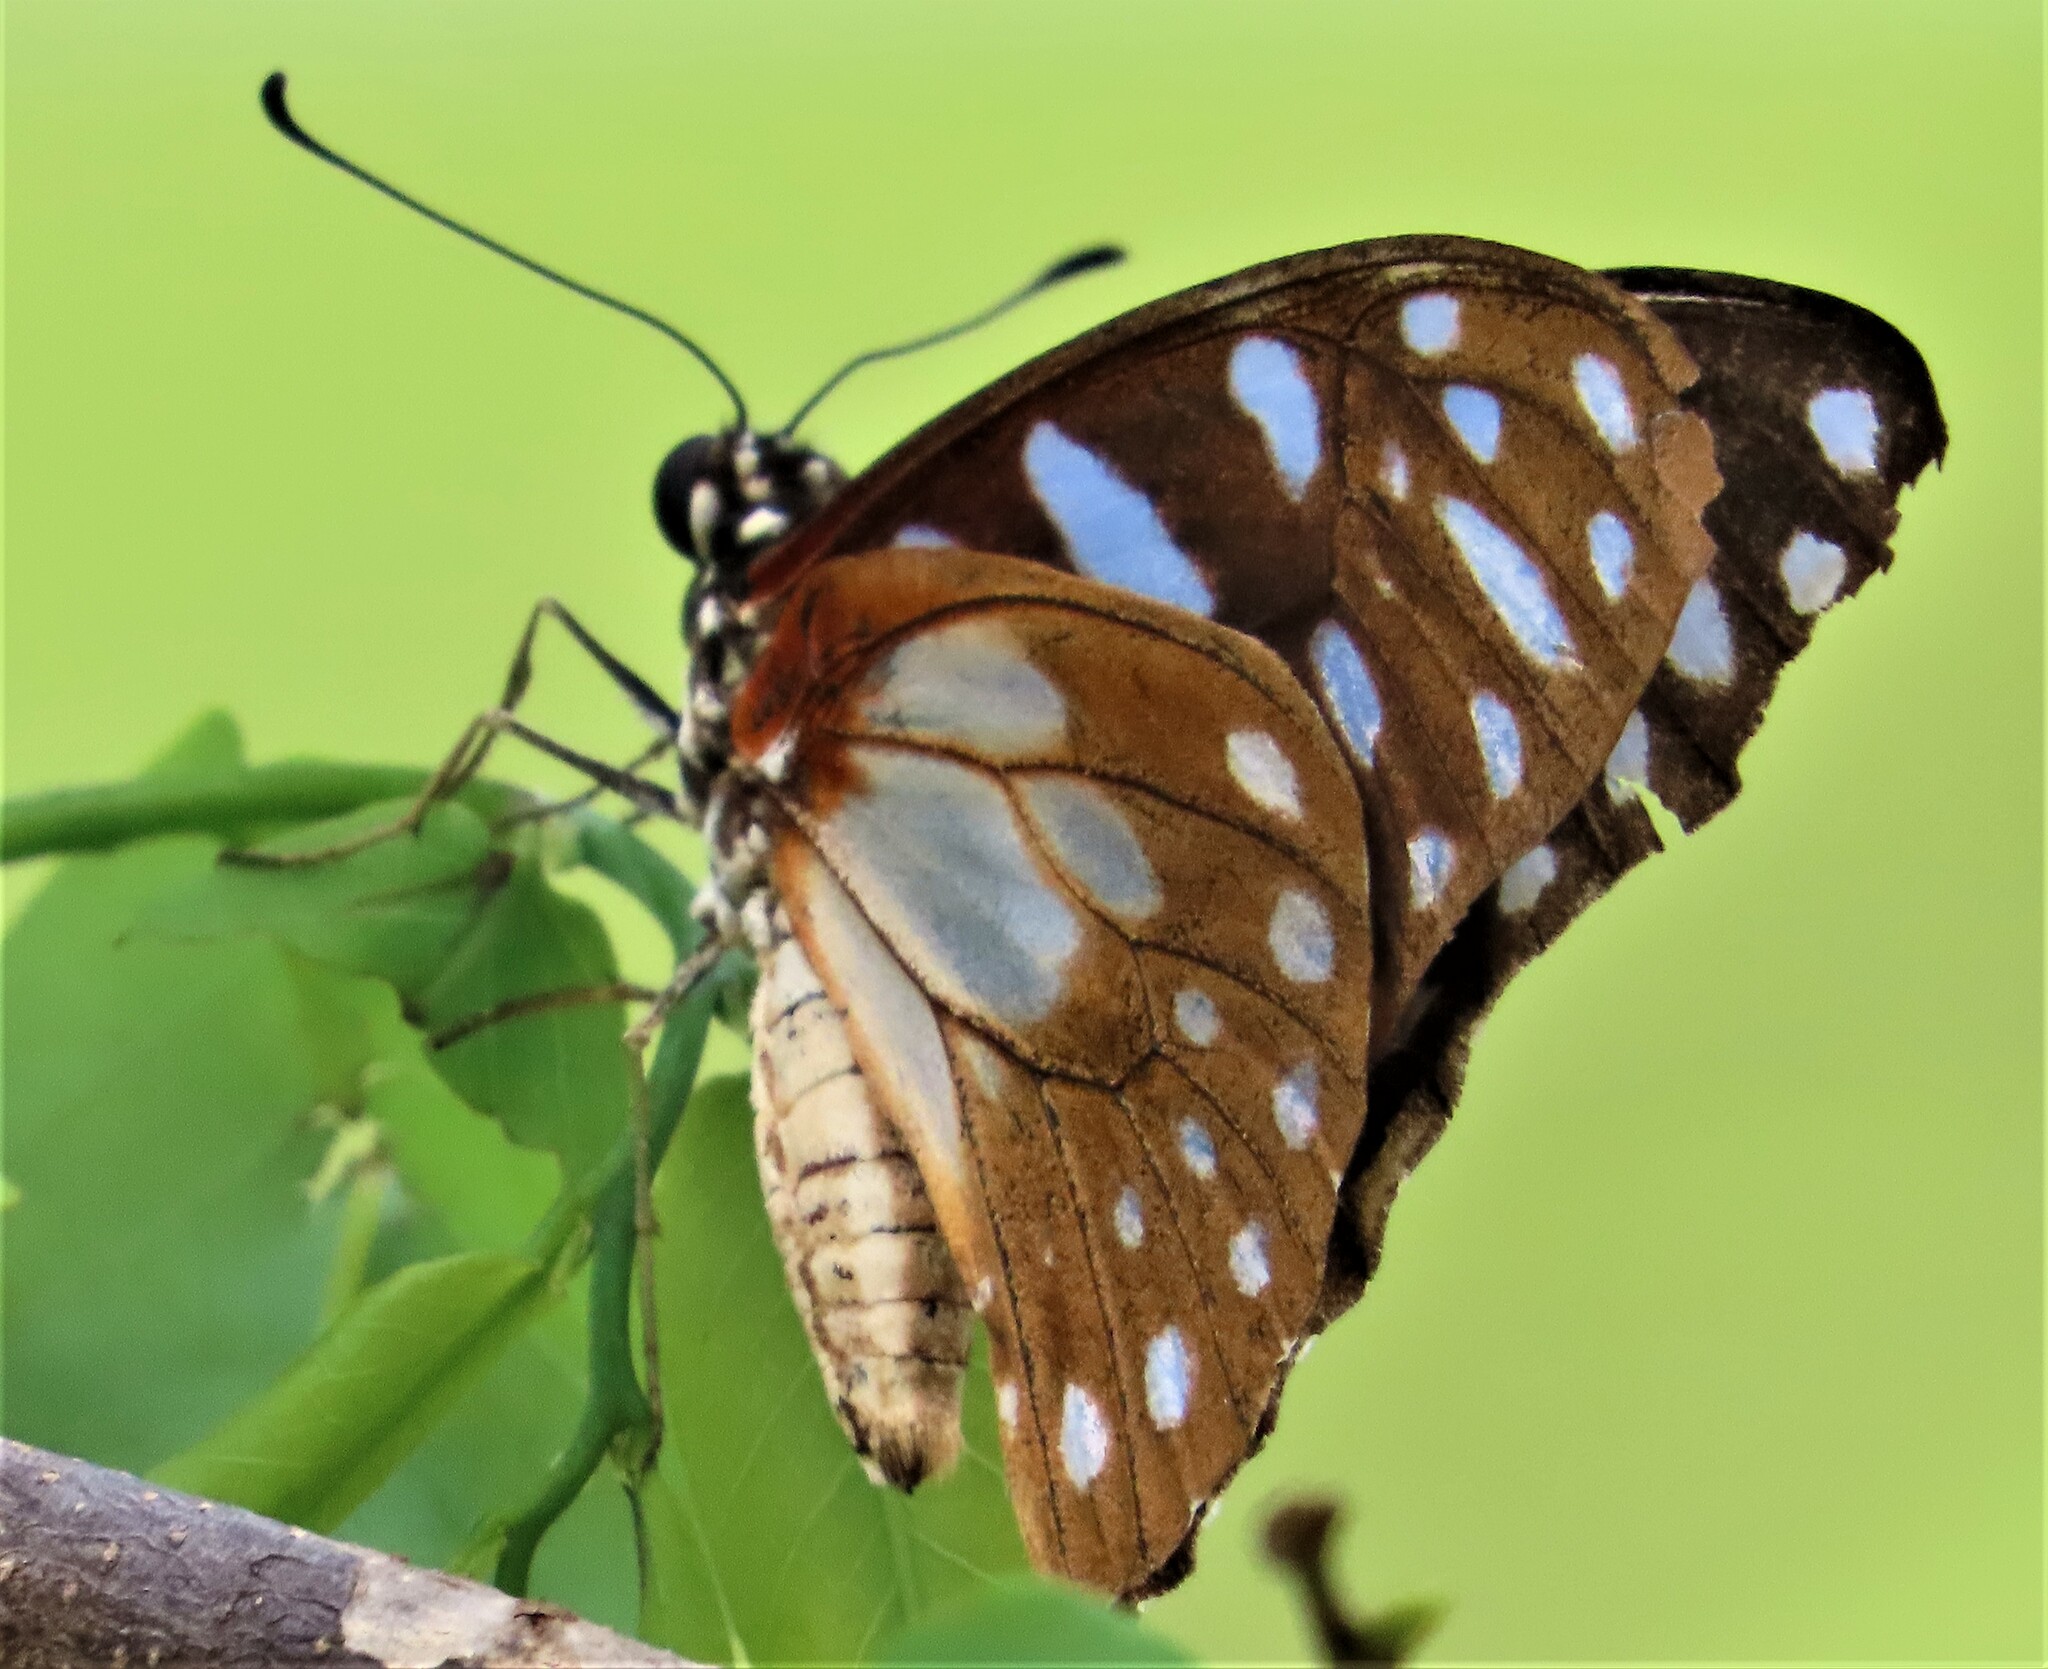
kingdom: Animalia
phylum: Arthropoda
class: Insecta
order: Lepidoptera
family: Papilionidae
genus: Graphium
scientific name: Graphium leonidas
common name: Common graphium
